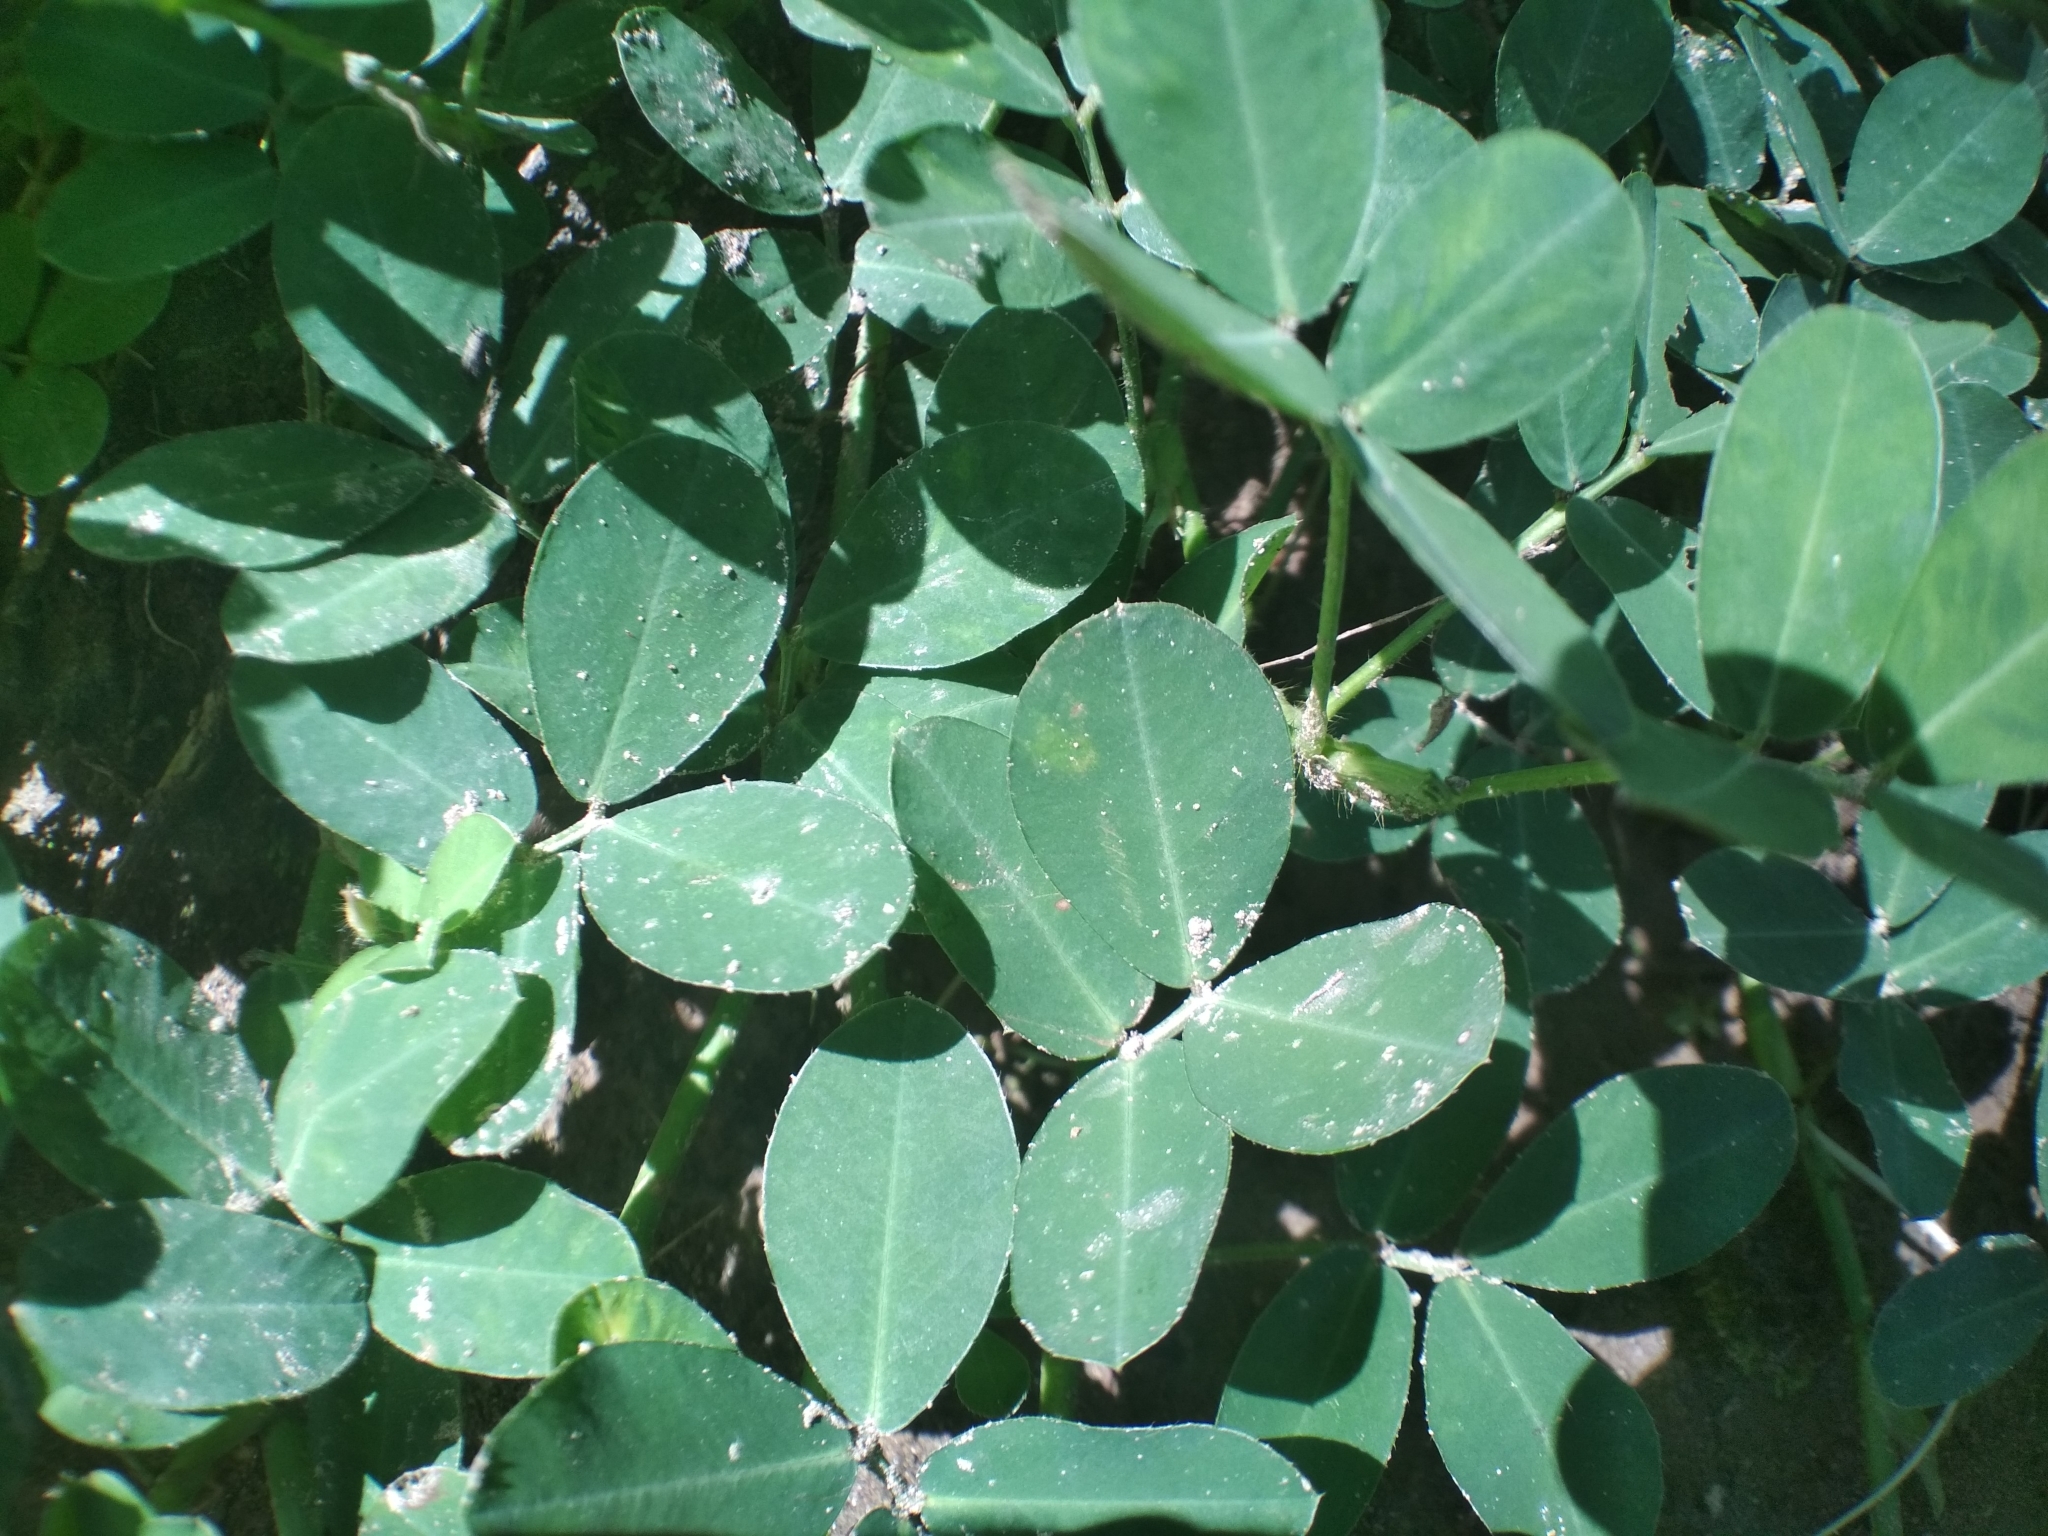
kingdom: Plantae
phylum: Tracheophyta
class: Magnoliopsida
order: Fabales
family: Fabaceae
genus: Arachis
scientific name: Arachis pintoi
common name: Pinto peanut
